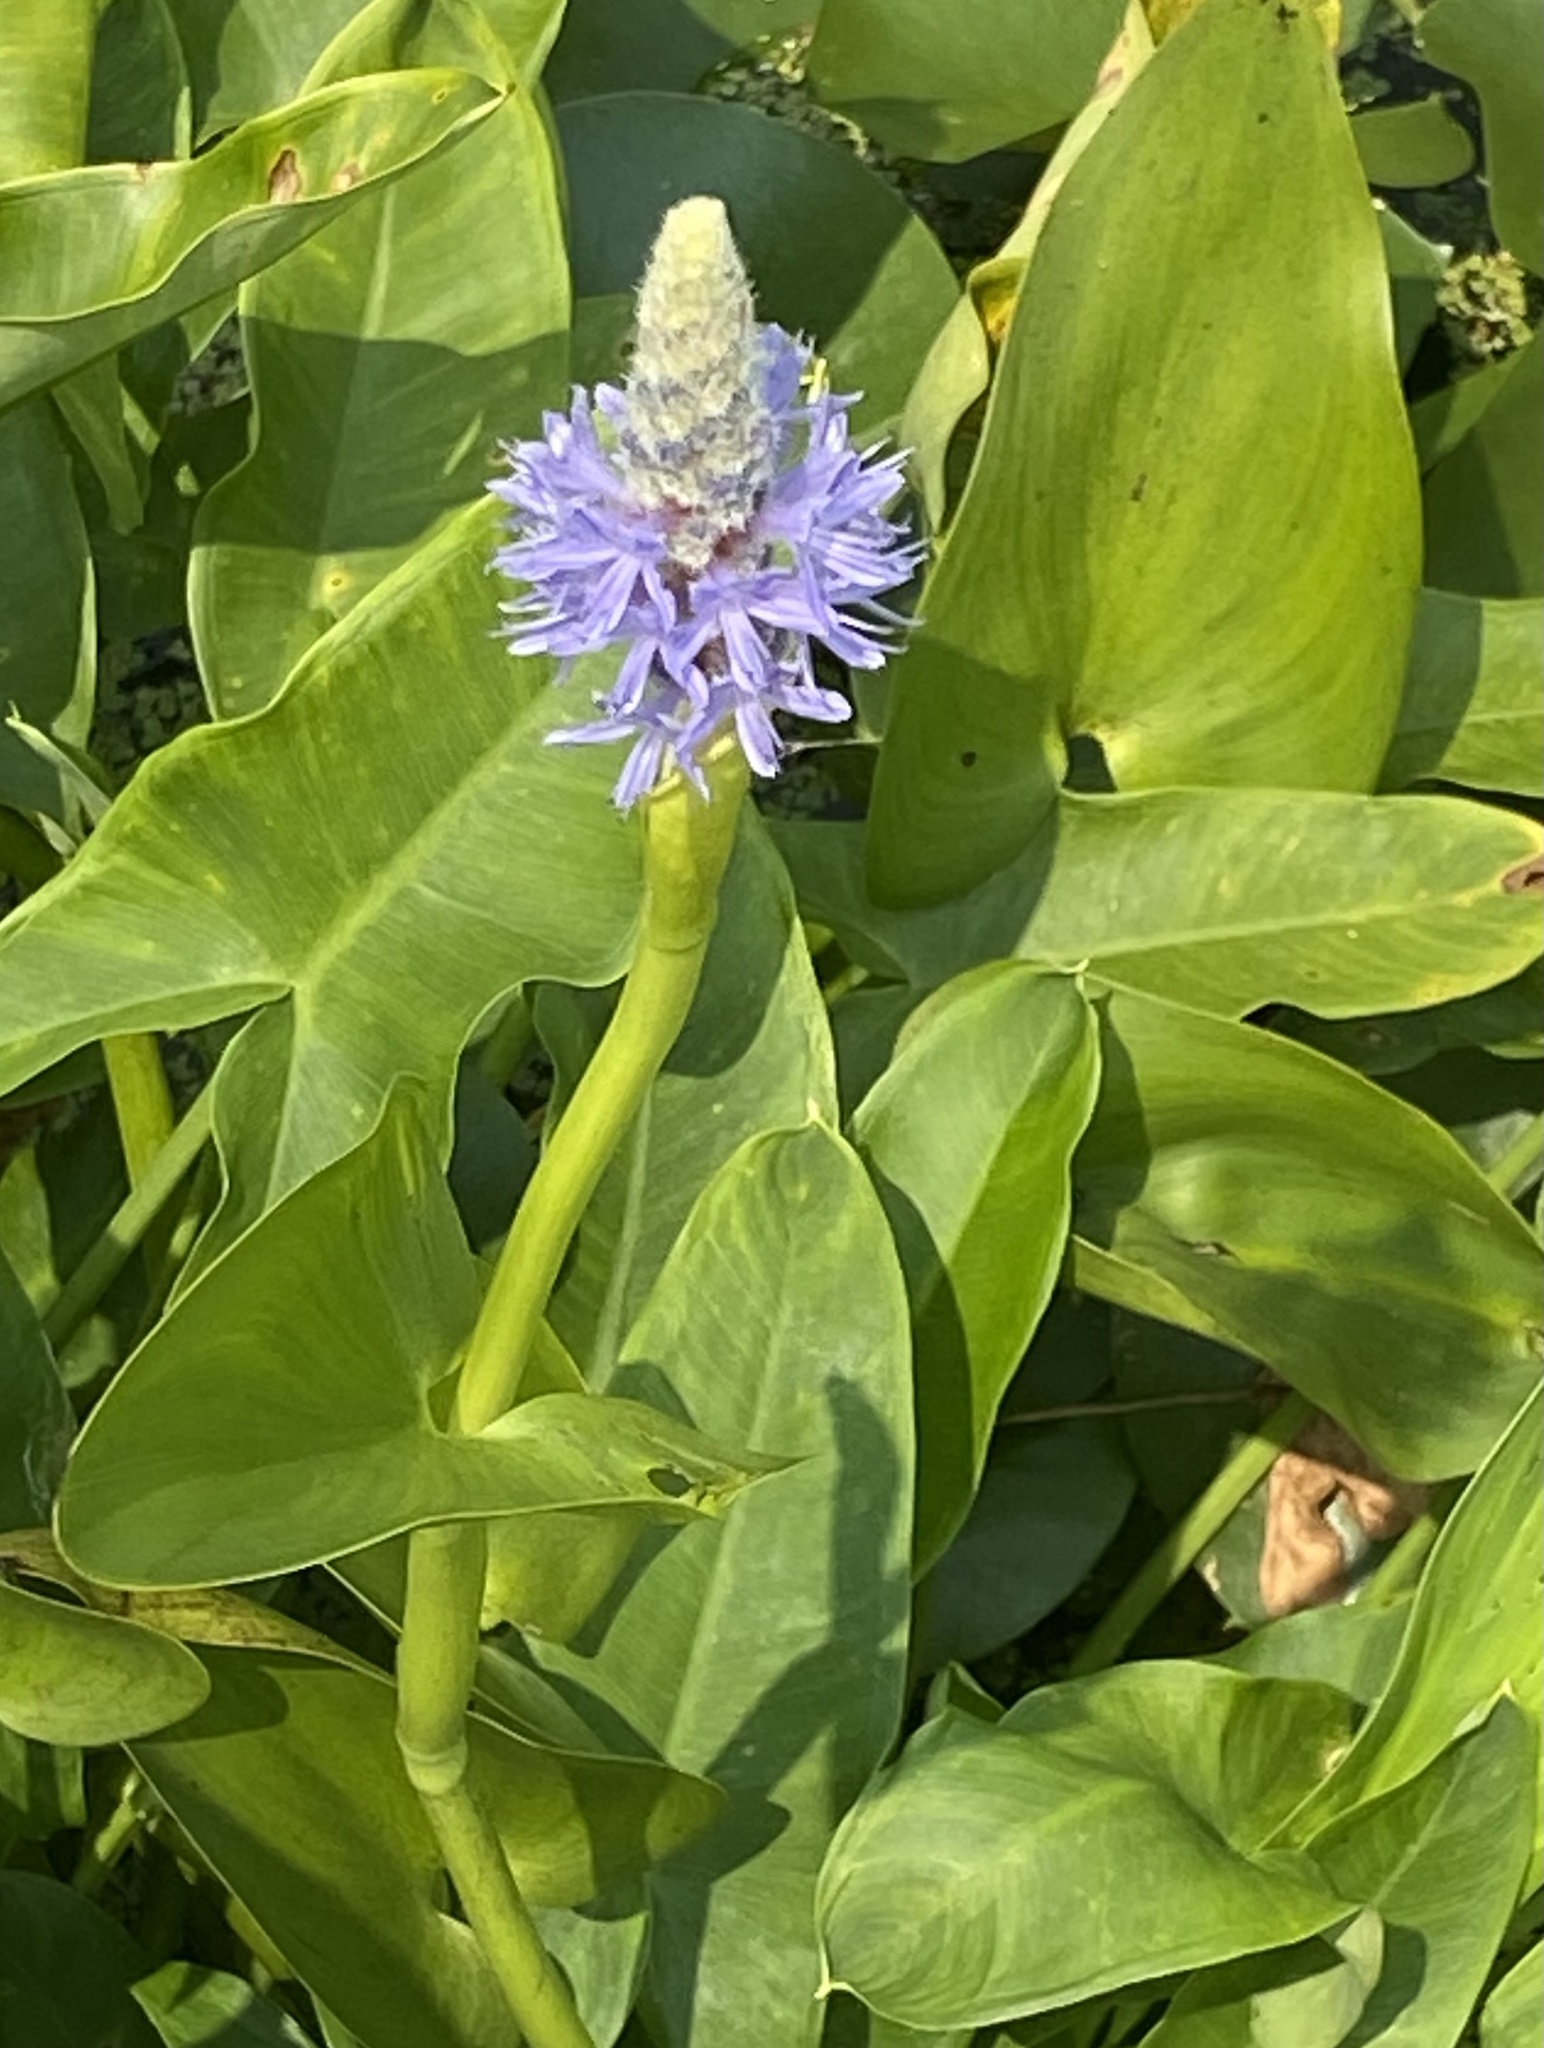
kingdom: Plantae
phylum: Tracheophyta
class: Liliopsida
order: Commelinales
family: Pontederiaceae
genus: Pontederia
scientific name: Pontederia cordata
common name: Pickerelweed
